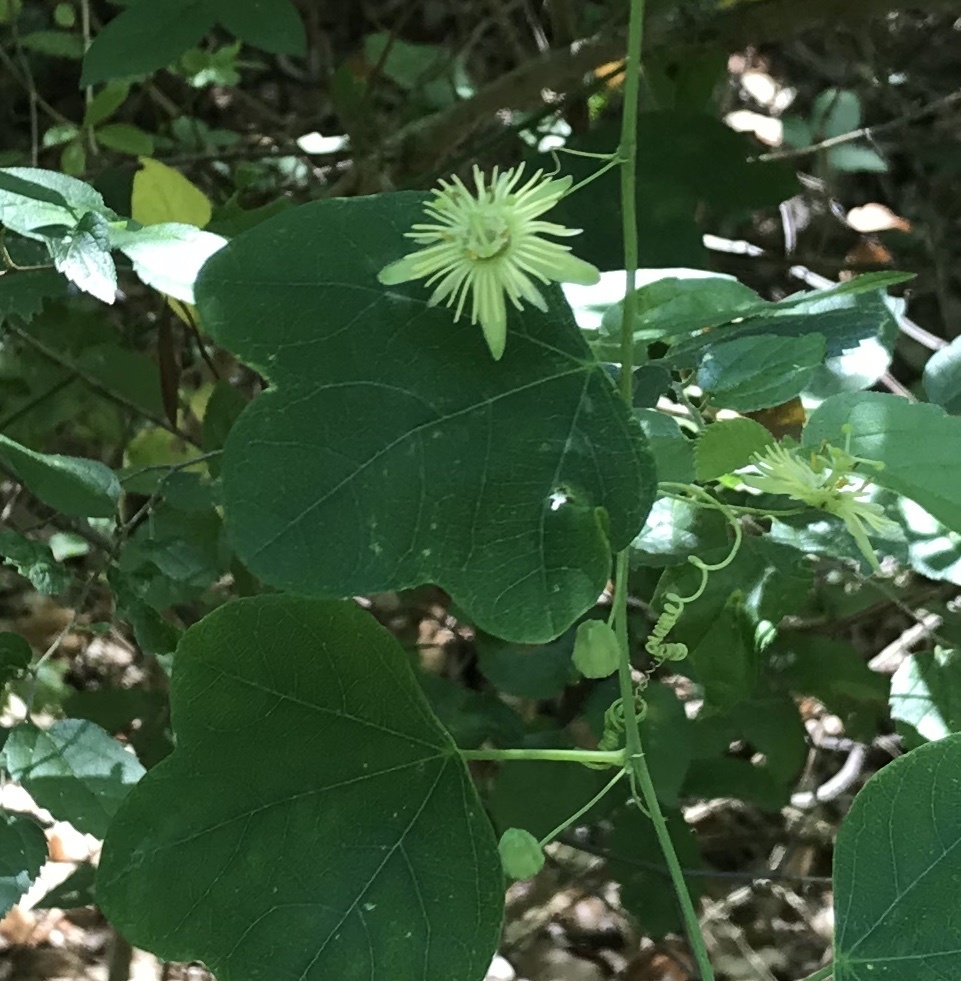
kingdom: Plantae
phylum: Tracheophyta
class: Magnoliopsida
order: Malpighiales
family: Passifloraceae
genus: Passiflora
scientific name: Passiflora lutea
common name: Yellow passionflower
